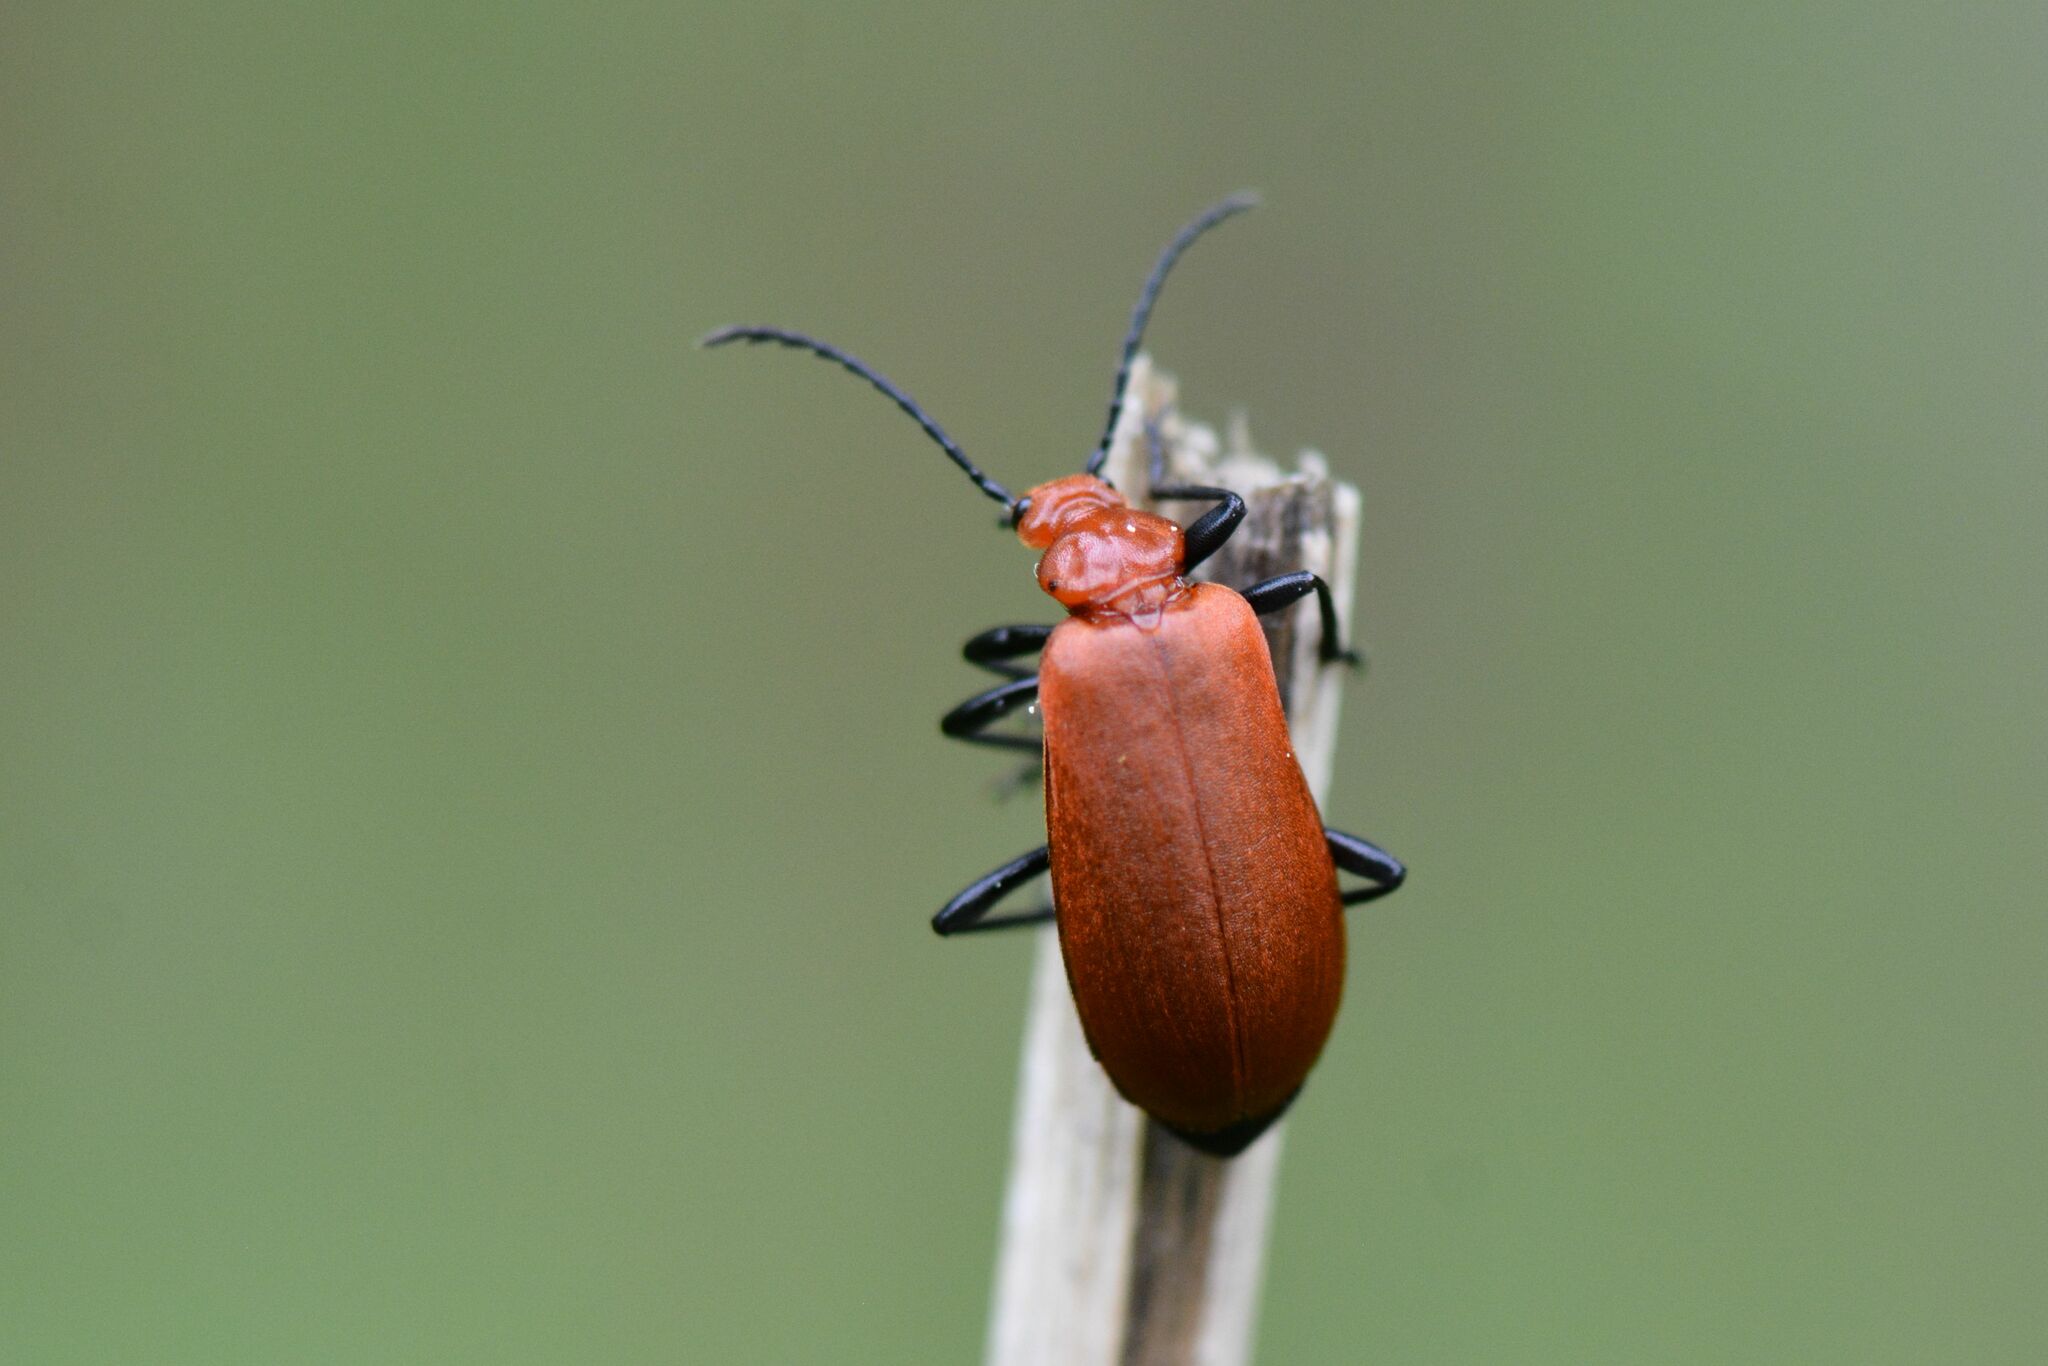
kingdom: Animalia
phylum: Arthropoda
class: Insecta
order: Coleoptera
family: Pyrochroidae
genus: Pyrochroa
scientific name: Pyrochroa serraticornis
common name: Red-headed cardinal beetle
